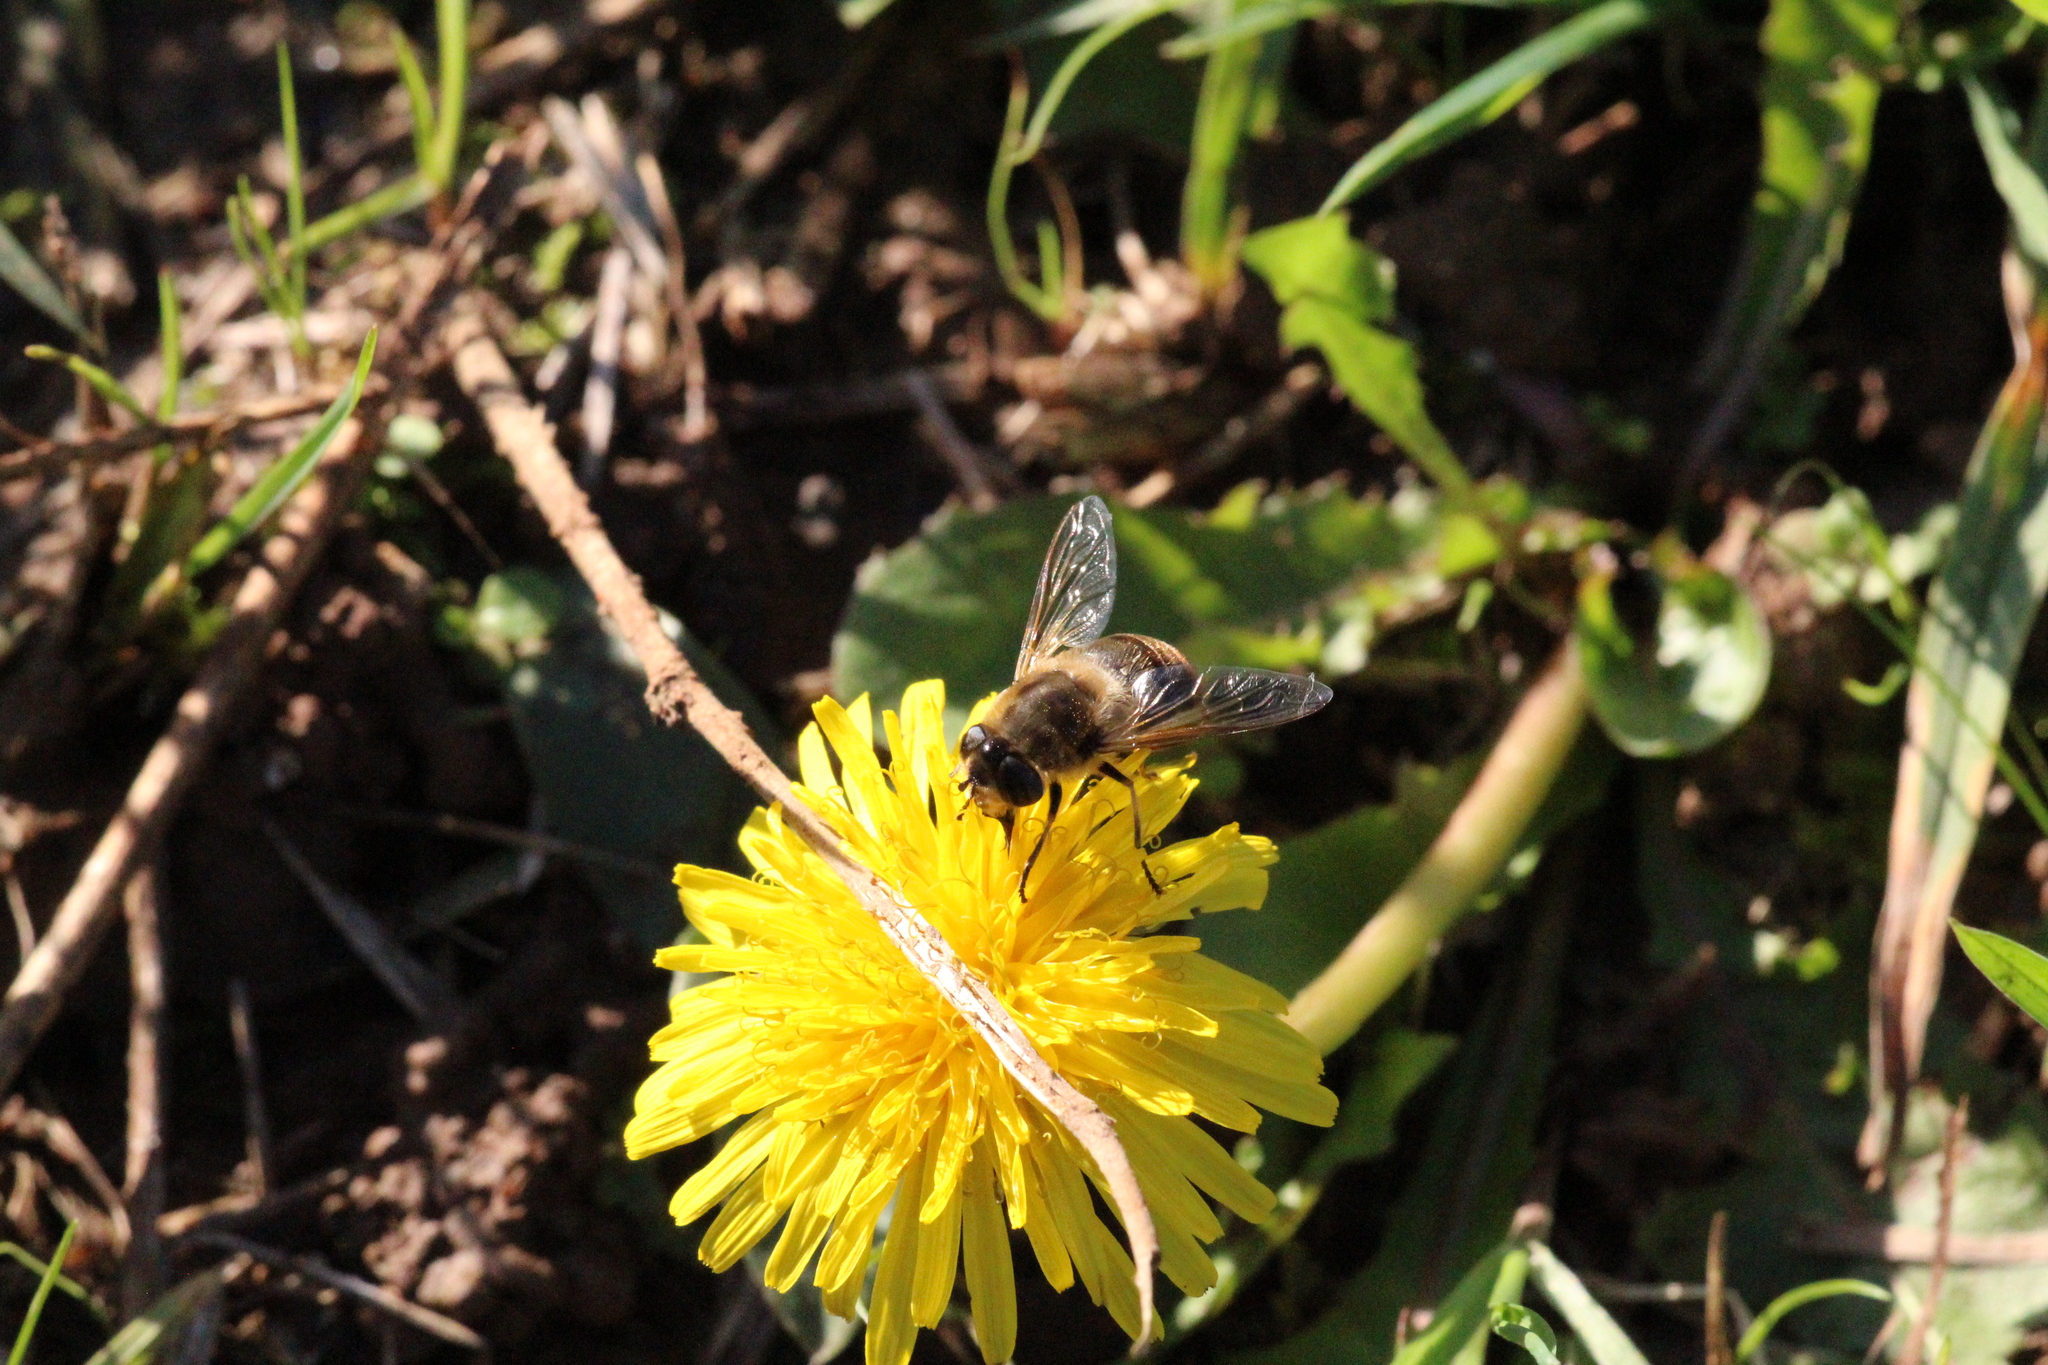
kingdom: Animalia
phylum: Arthropoda
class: Insecta
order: Diptera
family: Syrphidae
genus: Eristalis
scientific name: Eristalis tenax
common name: Drone fly
